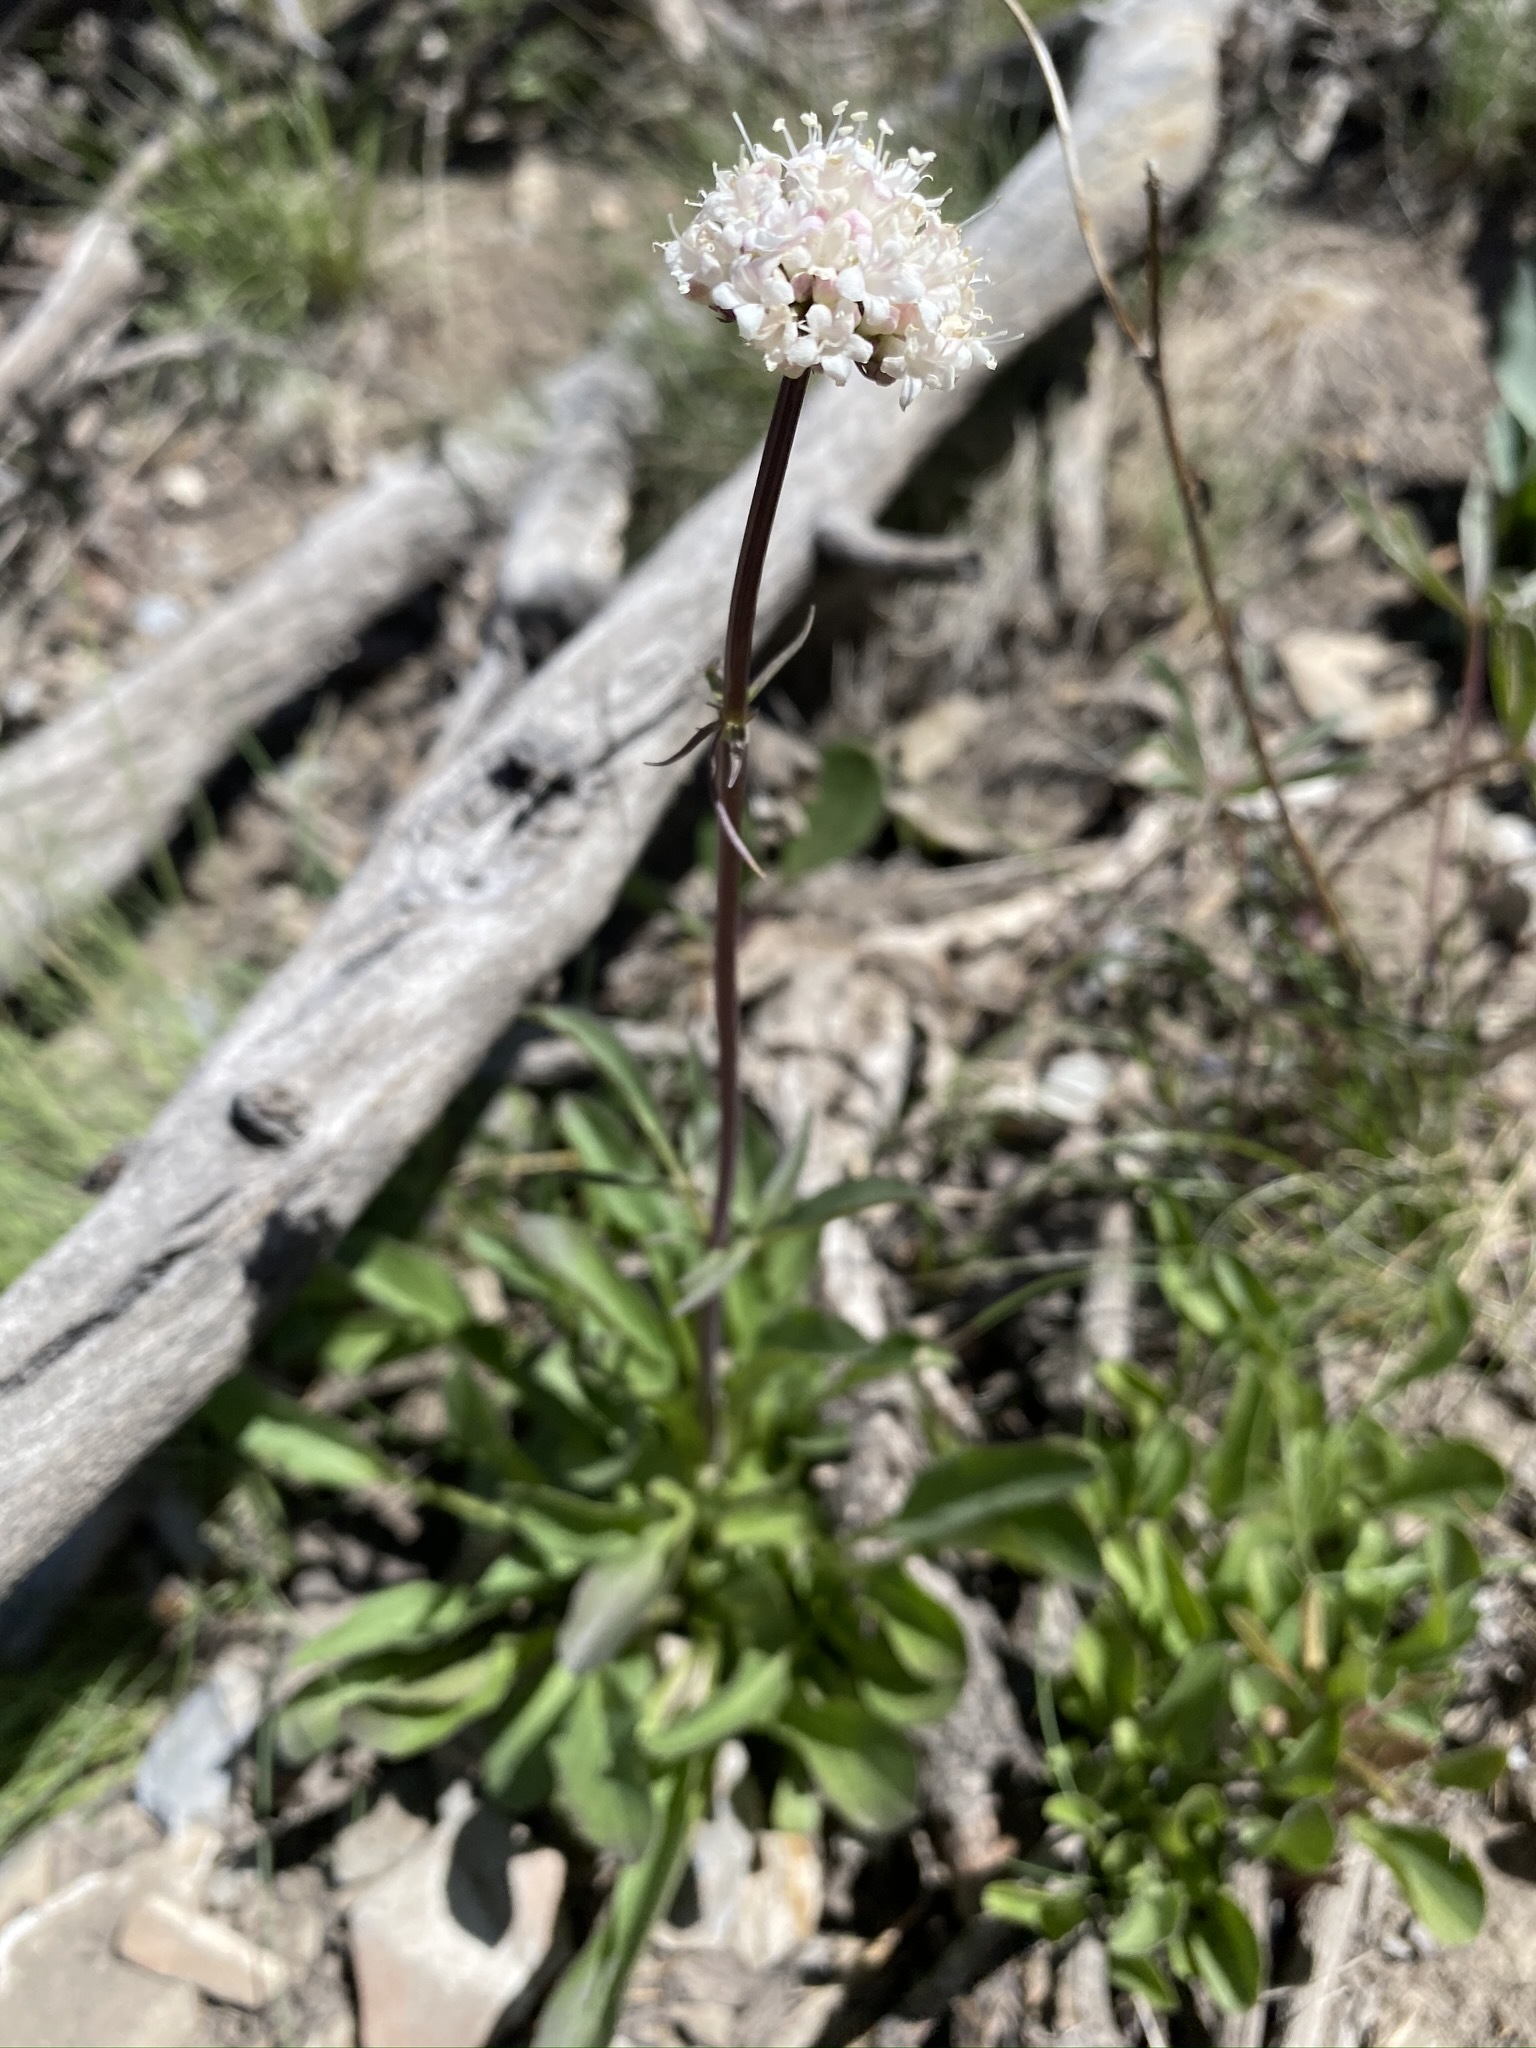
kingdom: Plantae
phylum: Tracheophyta
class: Magnoliopsida
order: Dipsacales
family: Caprifoliaceae
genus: Valeriana
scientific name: Valeriana californica
